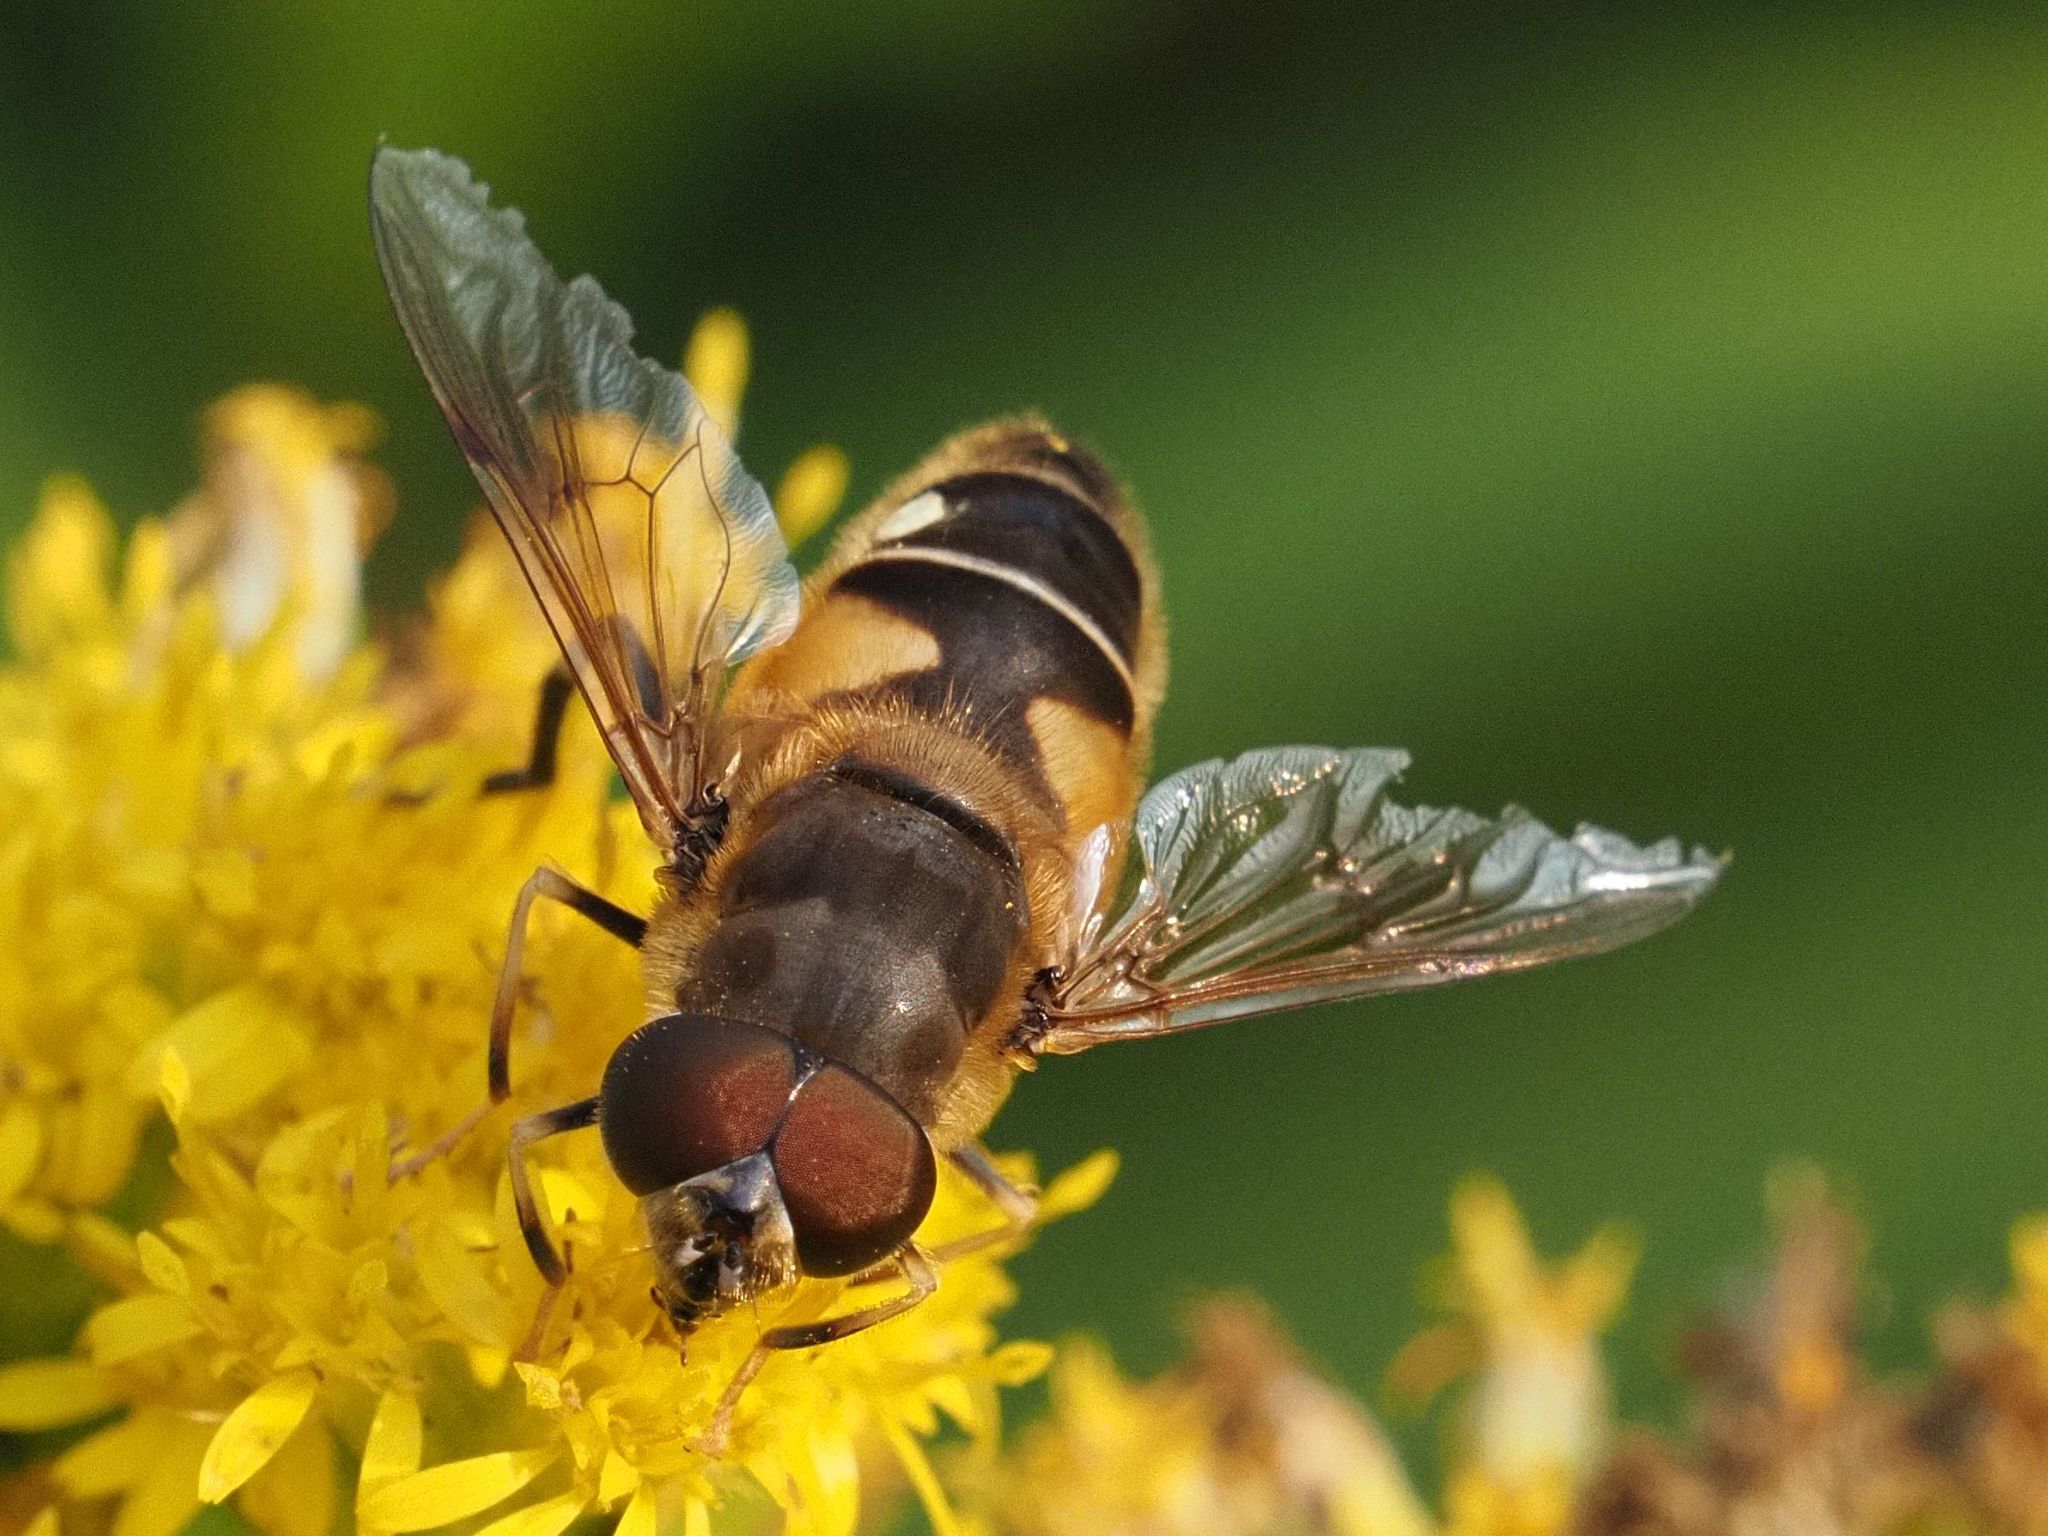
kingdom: Animalia
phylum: Arthropoda
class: Insecta
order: Diptera
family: Syrphidae
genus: Eristalis
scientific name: Eristalis pertinax
